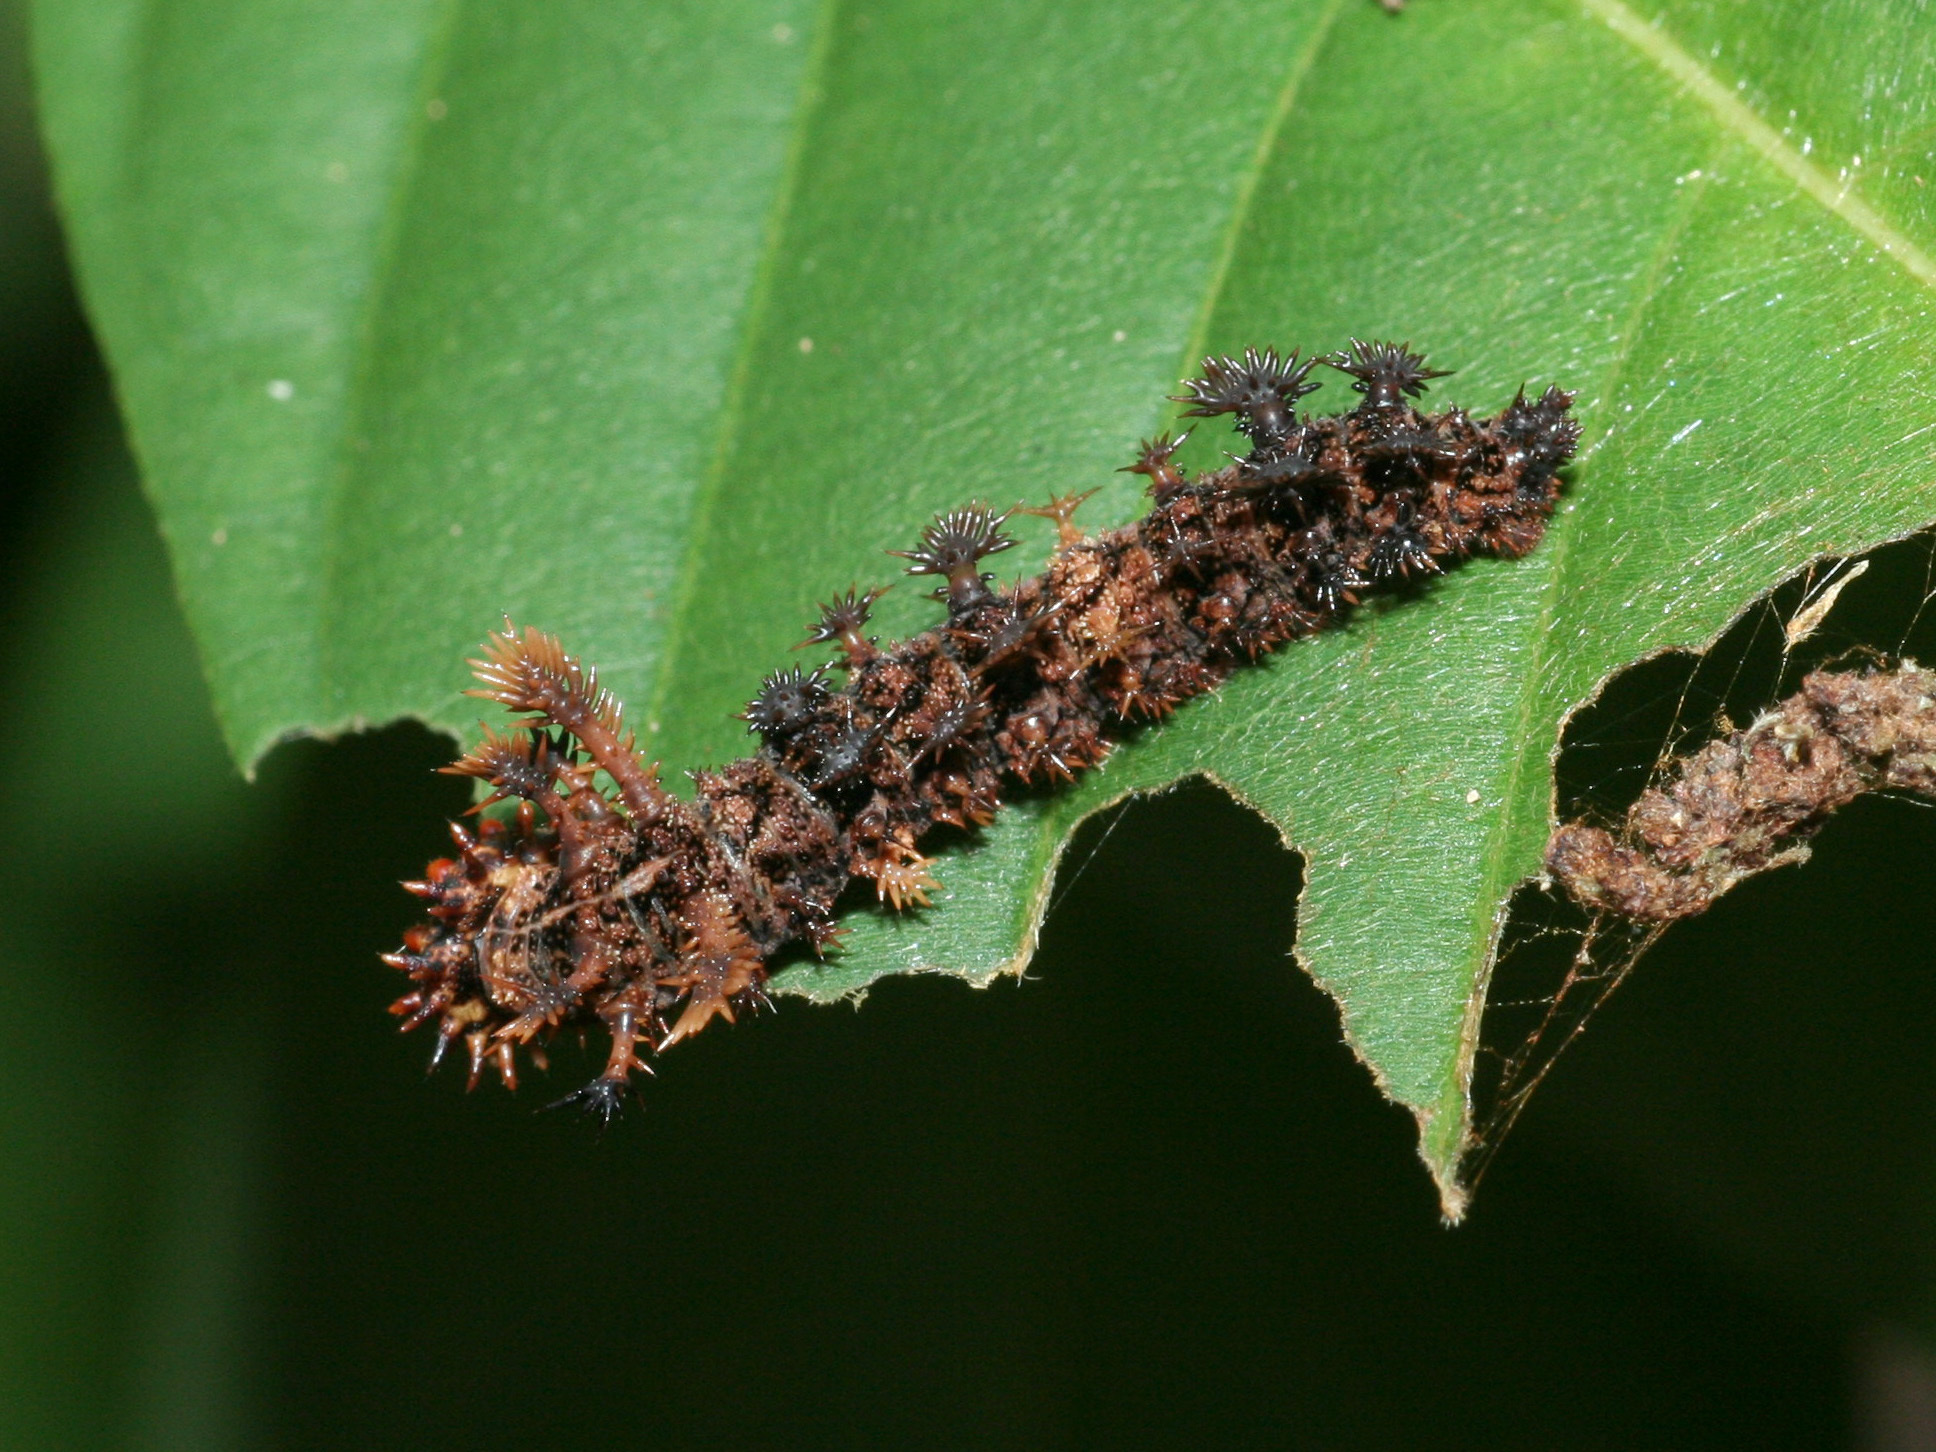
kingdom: Animalia
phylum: Arthropoda
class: Insecta
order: Lepidoptera
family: Nymphalidae
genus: Limenitis
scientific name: Limenitis Moduza procris
